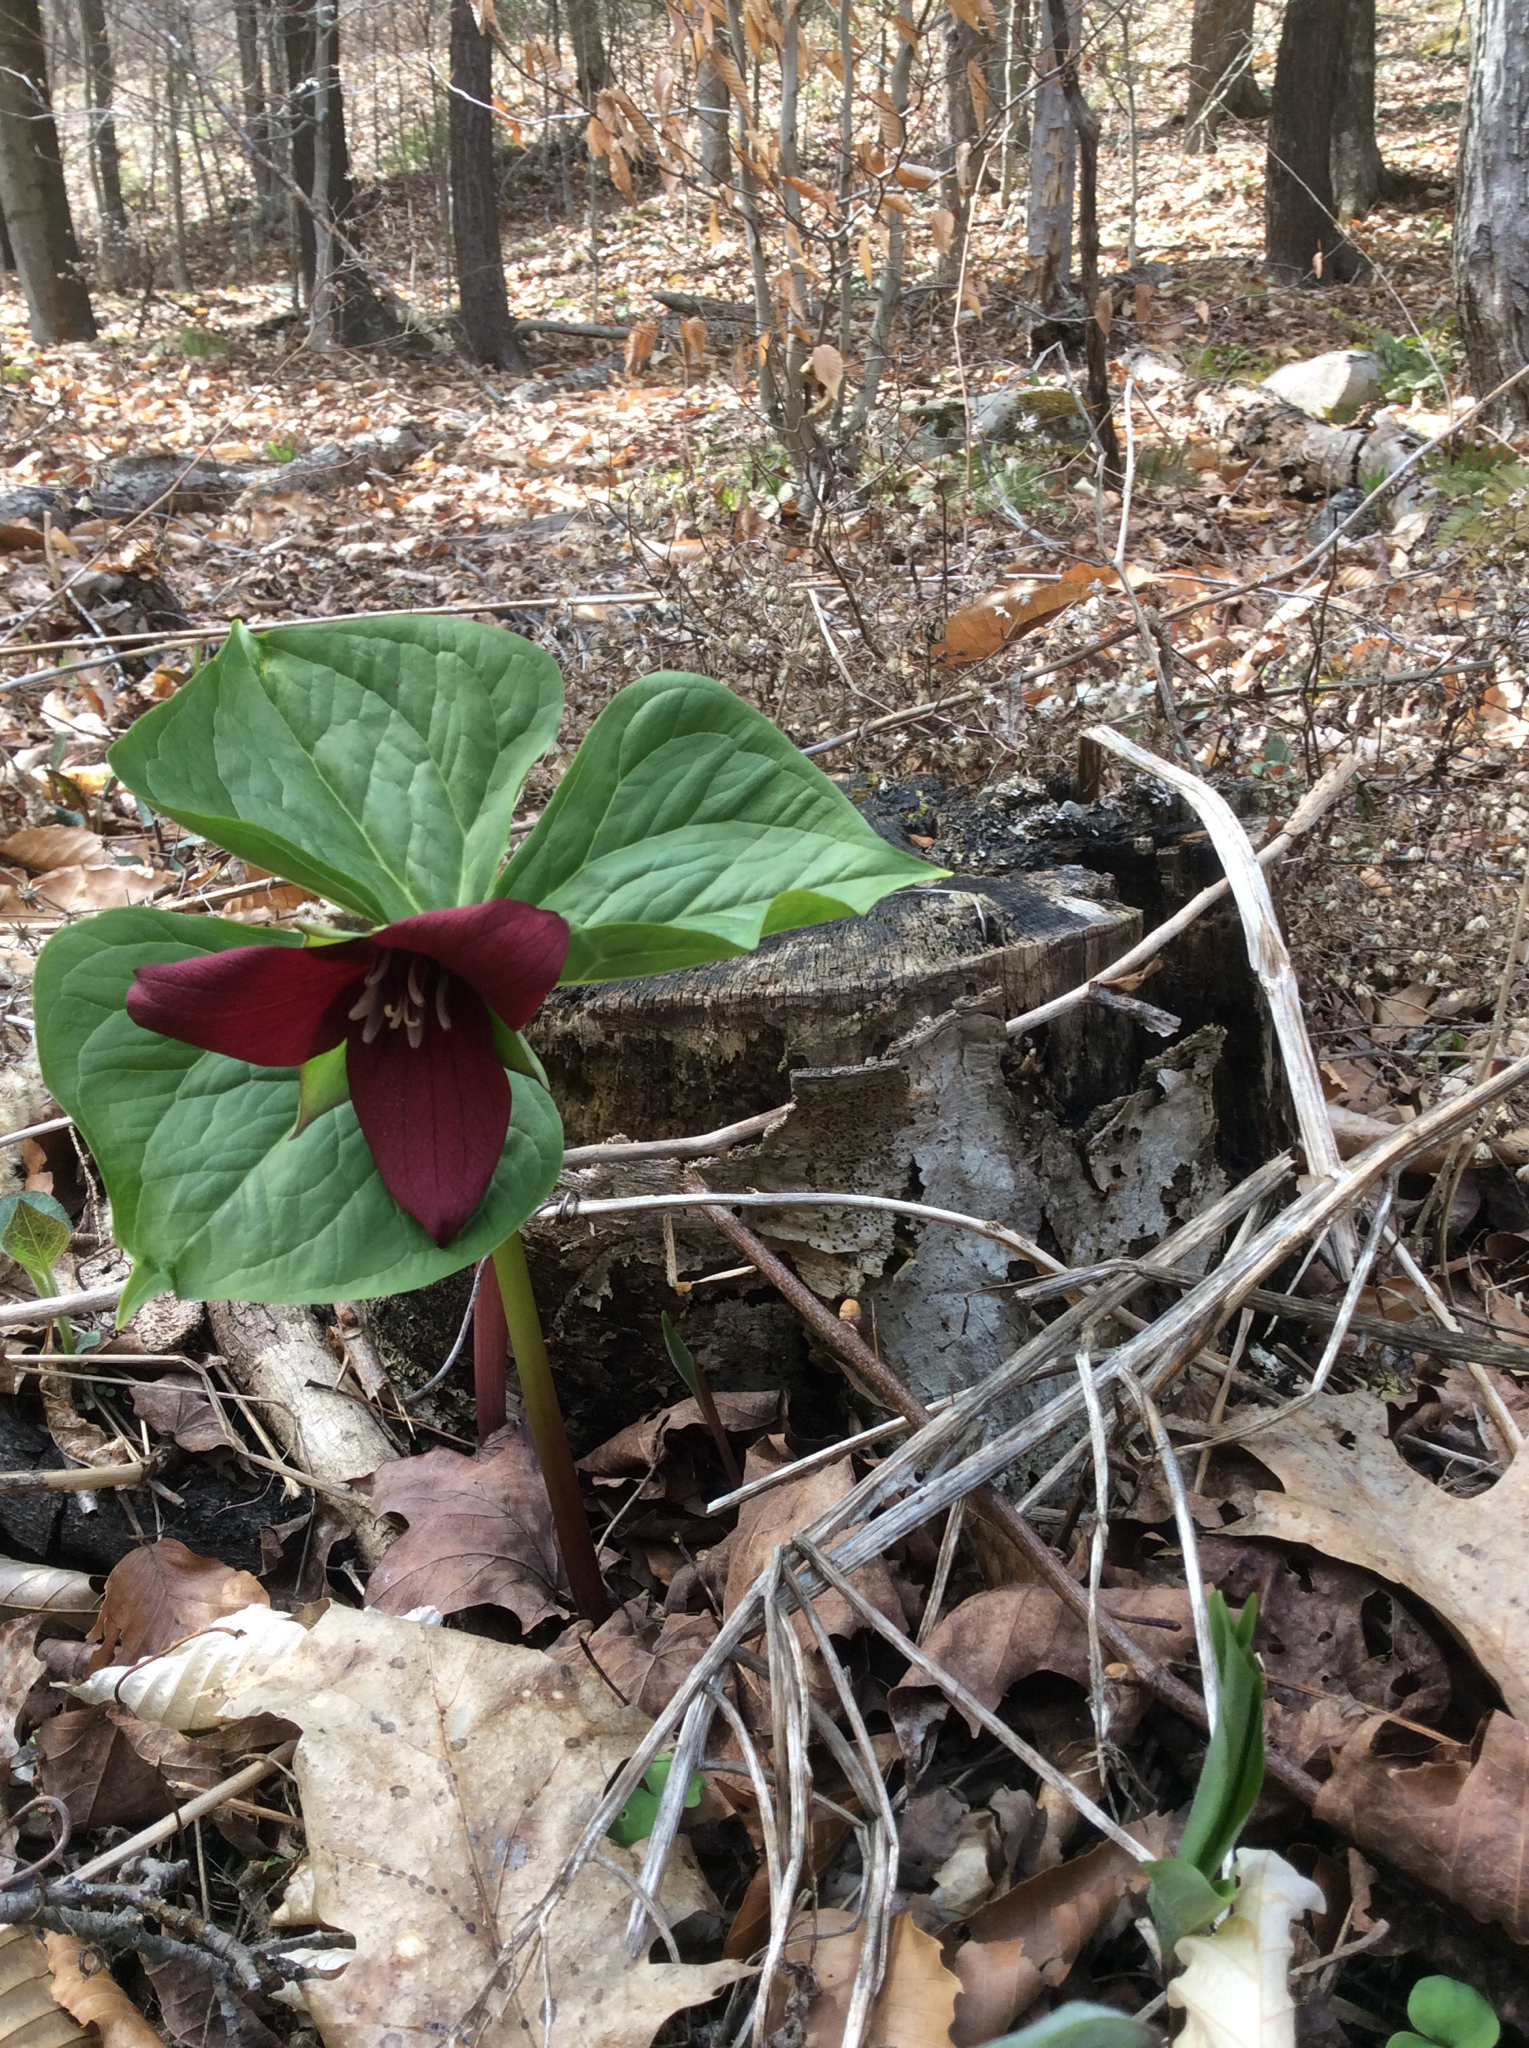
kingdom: Plantae
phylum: Tracheophyta
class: Liliopsida
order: Liliales
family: Melanthiaceae
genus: Trillium
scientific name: Trillium erectum
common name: Purple trillium
